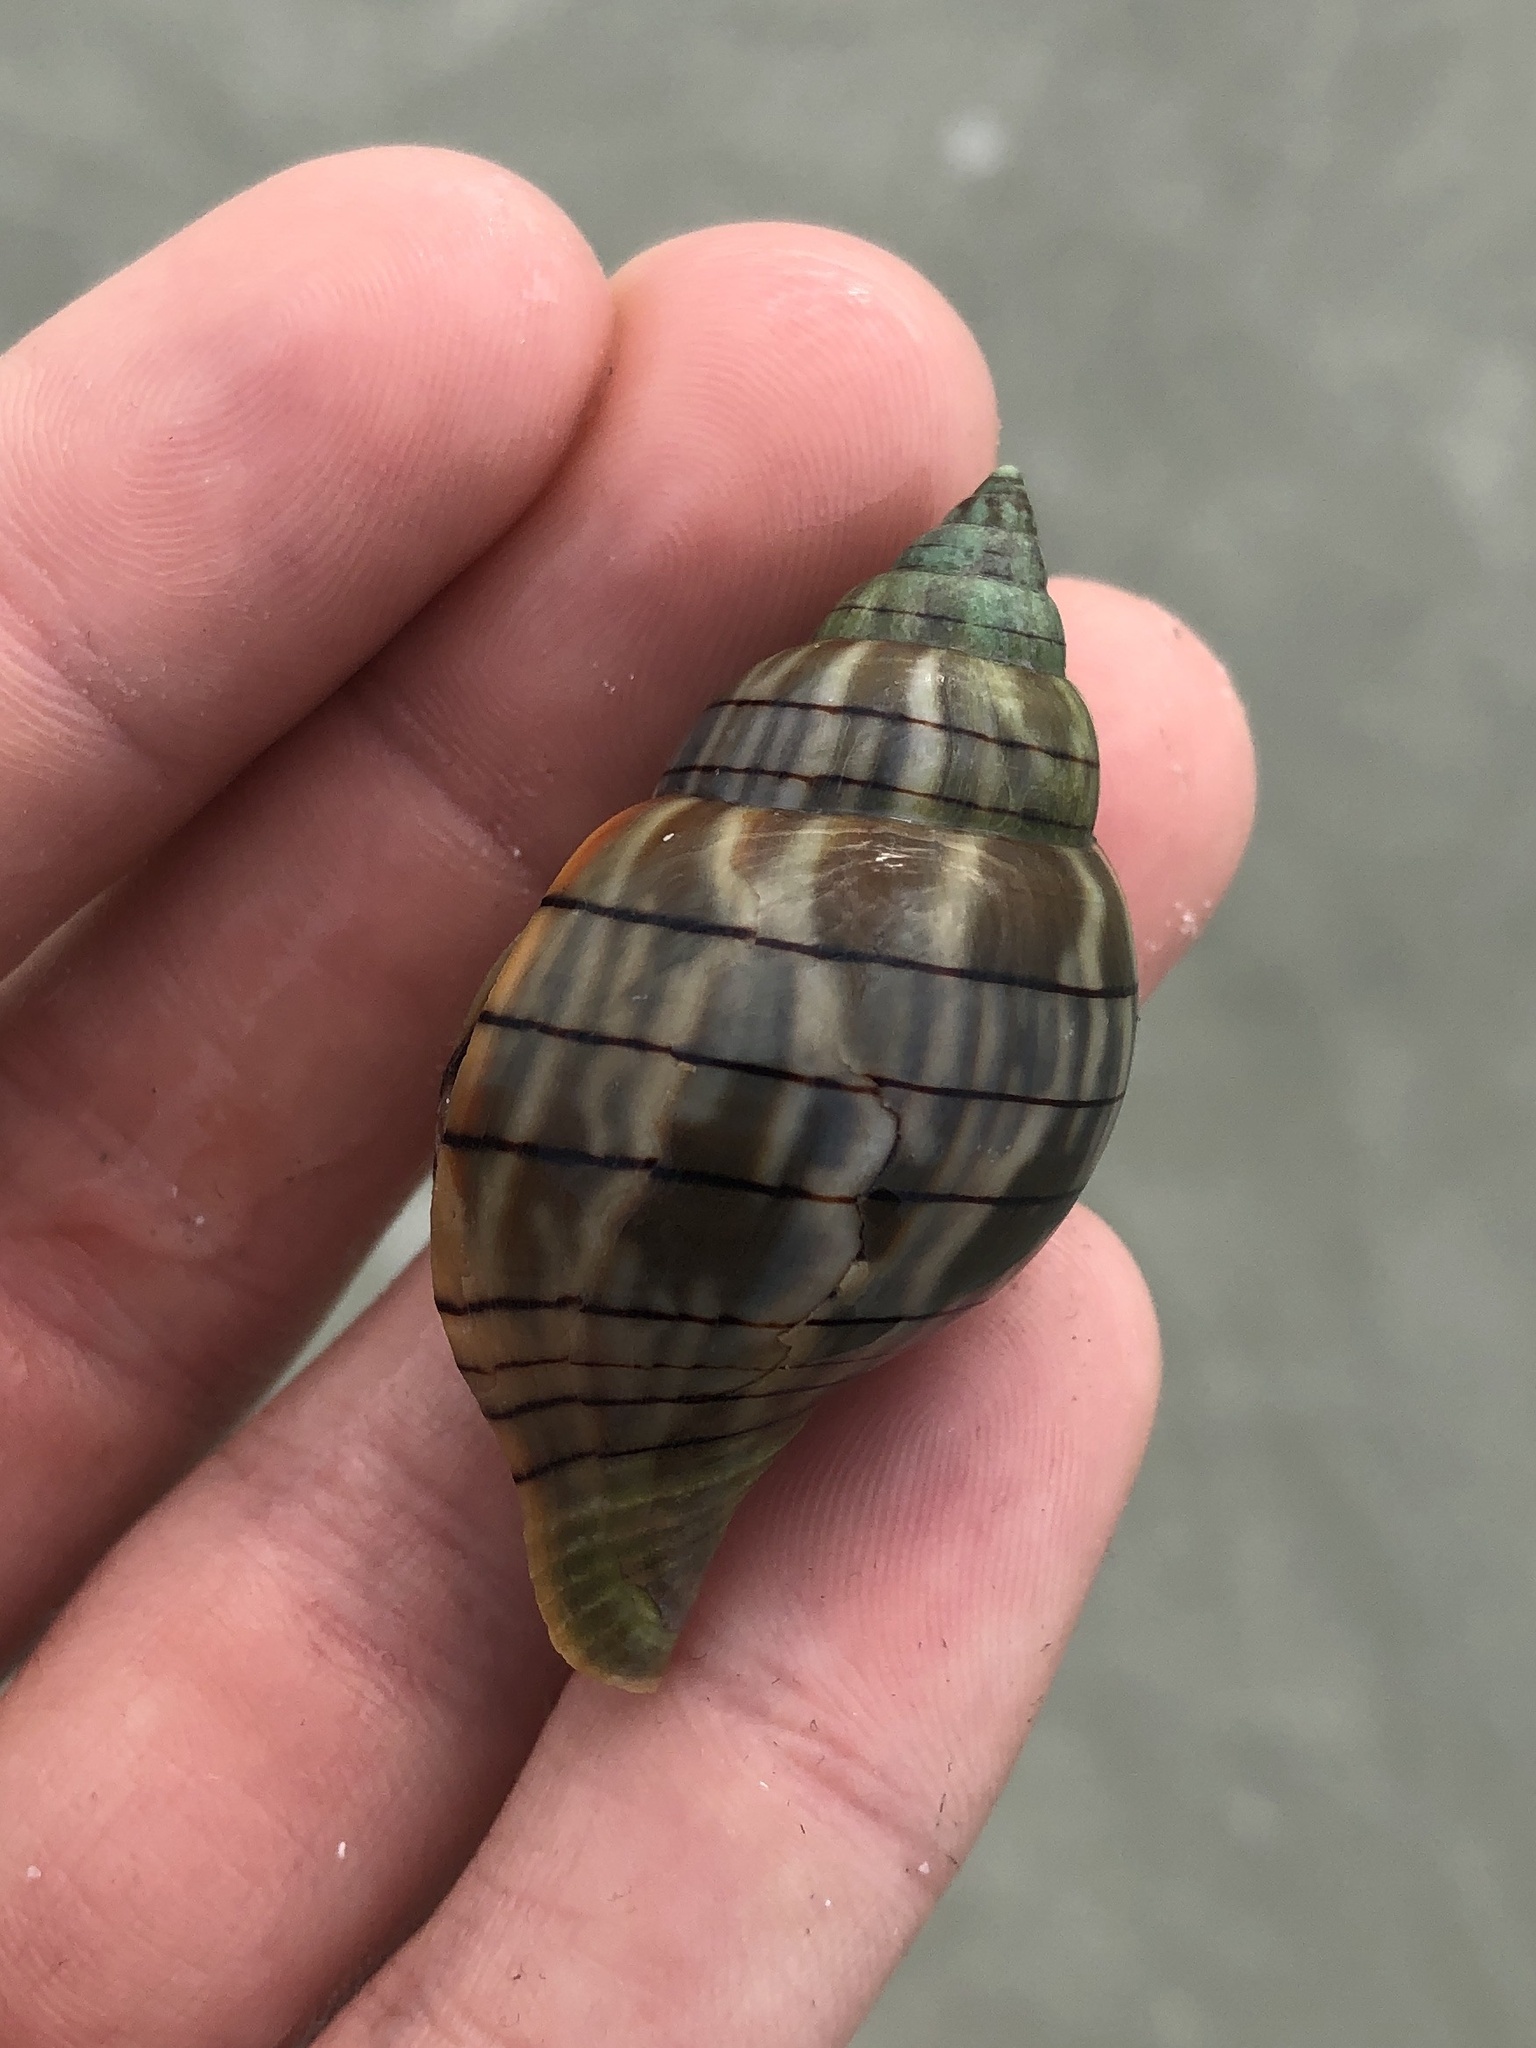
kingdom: Animalia
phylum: Mollusca
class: Gastropoda
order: Neogastropoda
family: Fasciolariidae
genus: Cinctura
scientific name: Cinctura hunteria
